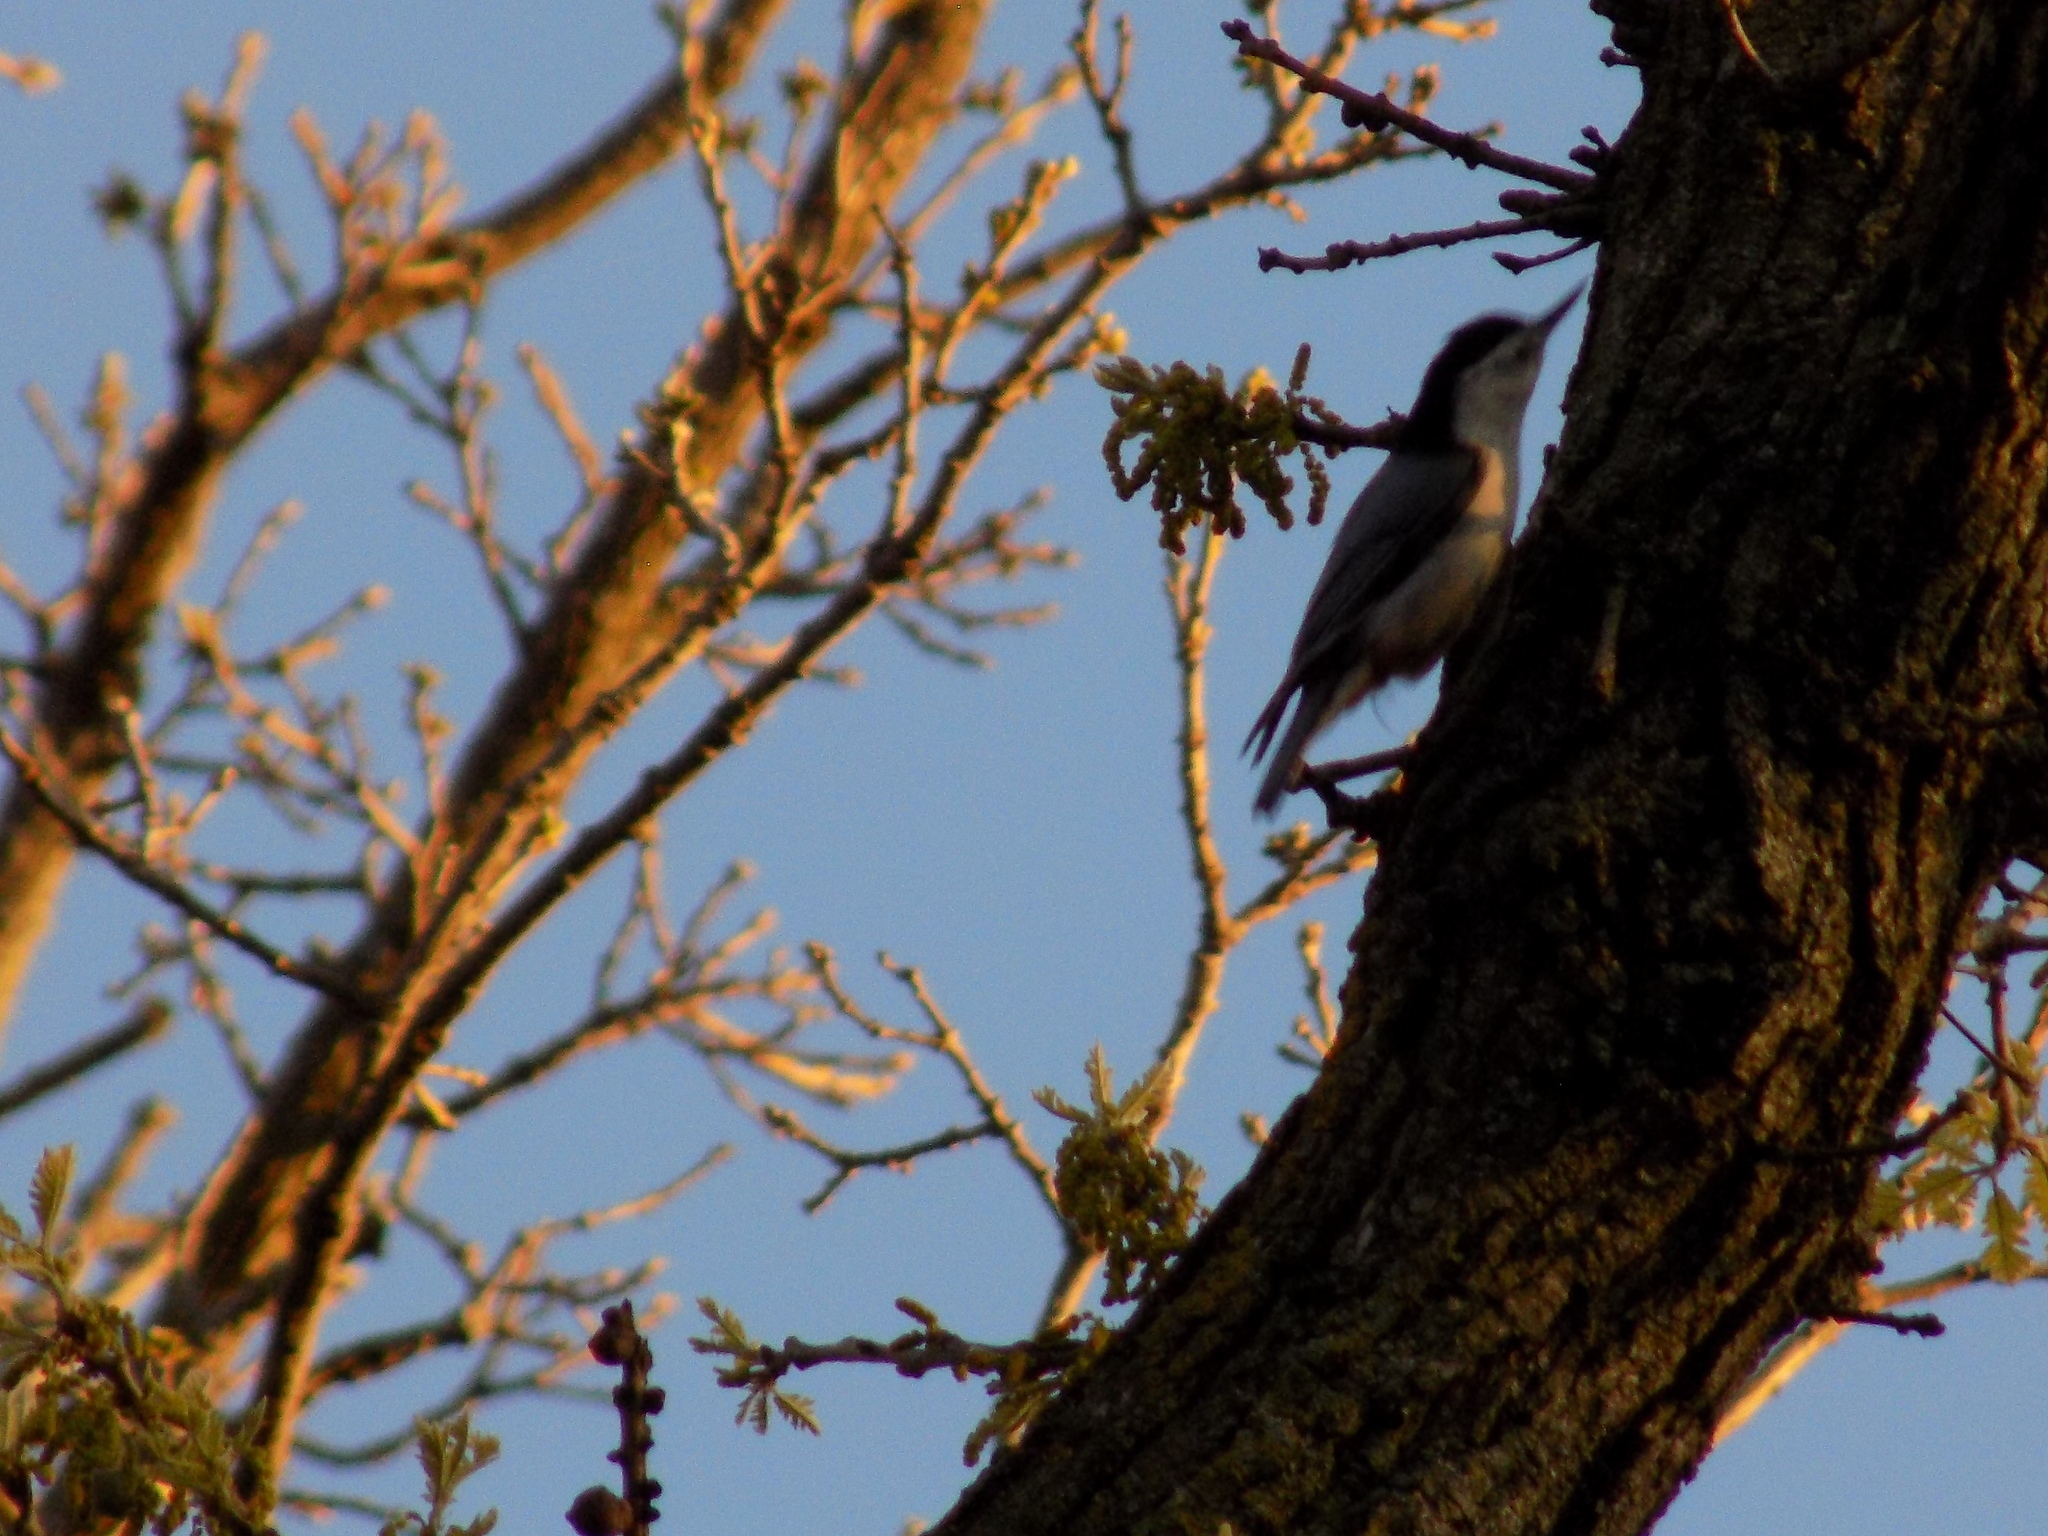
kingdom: Animalia
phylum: Chordata
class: Aves
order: Passeriformes
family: Sittidae
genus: Sitta
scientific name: Sitta carolinensis
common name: White-breasted nuthatch
